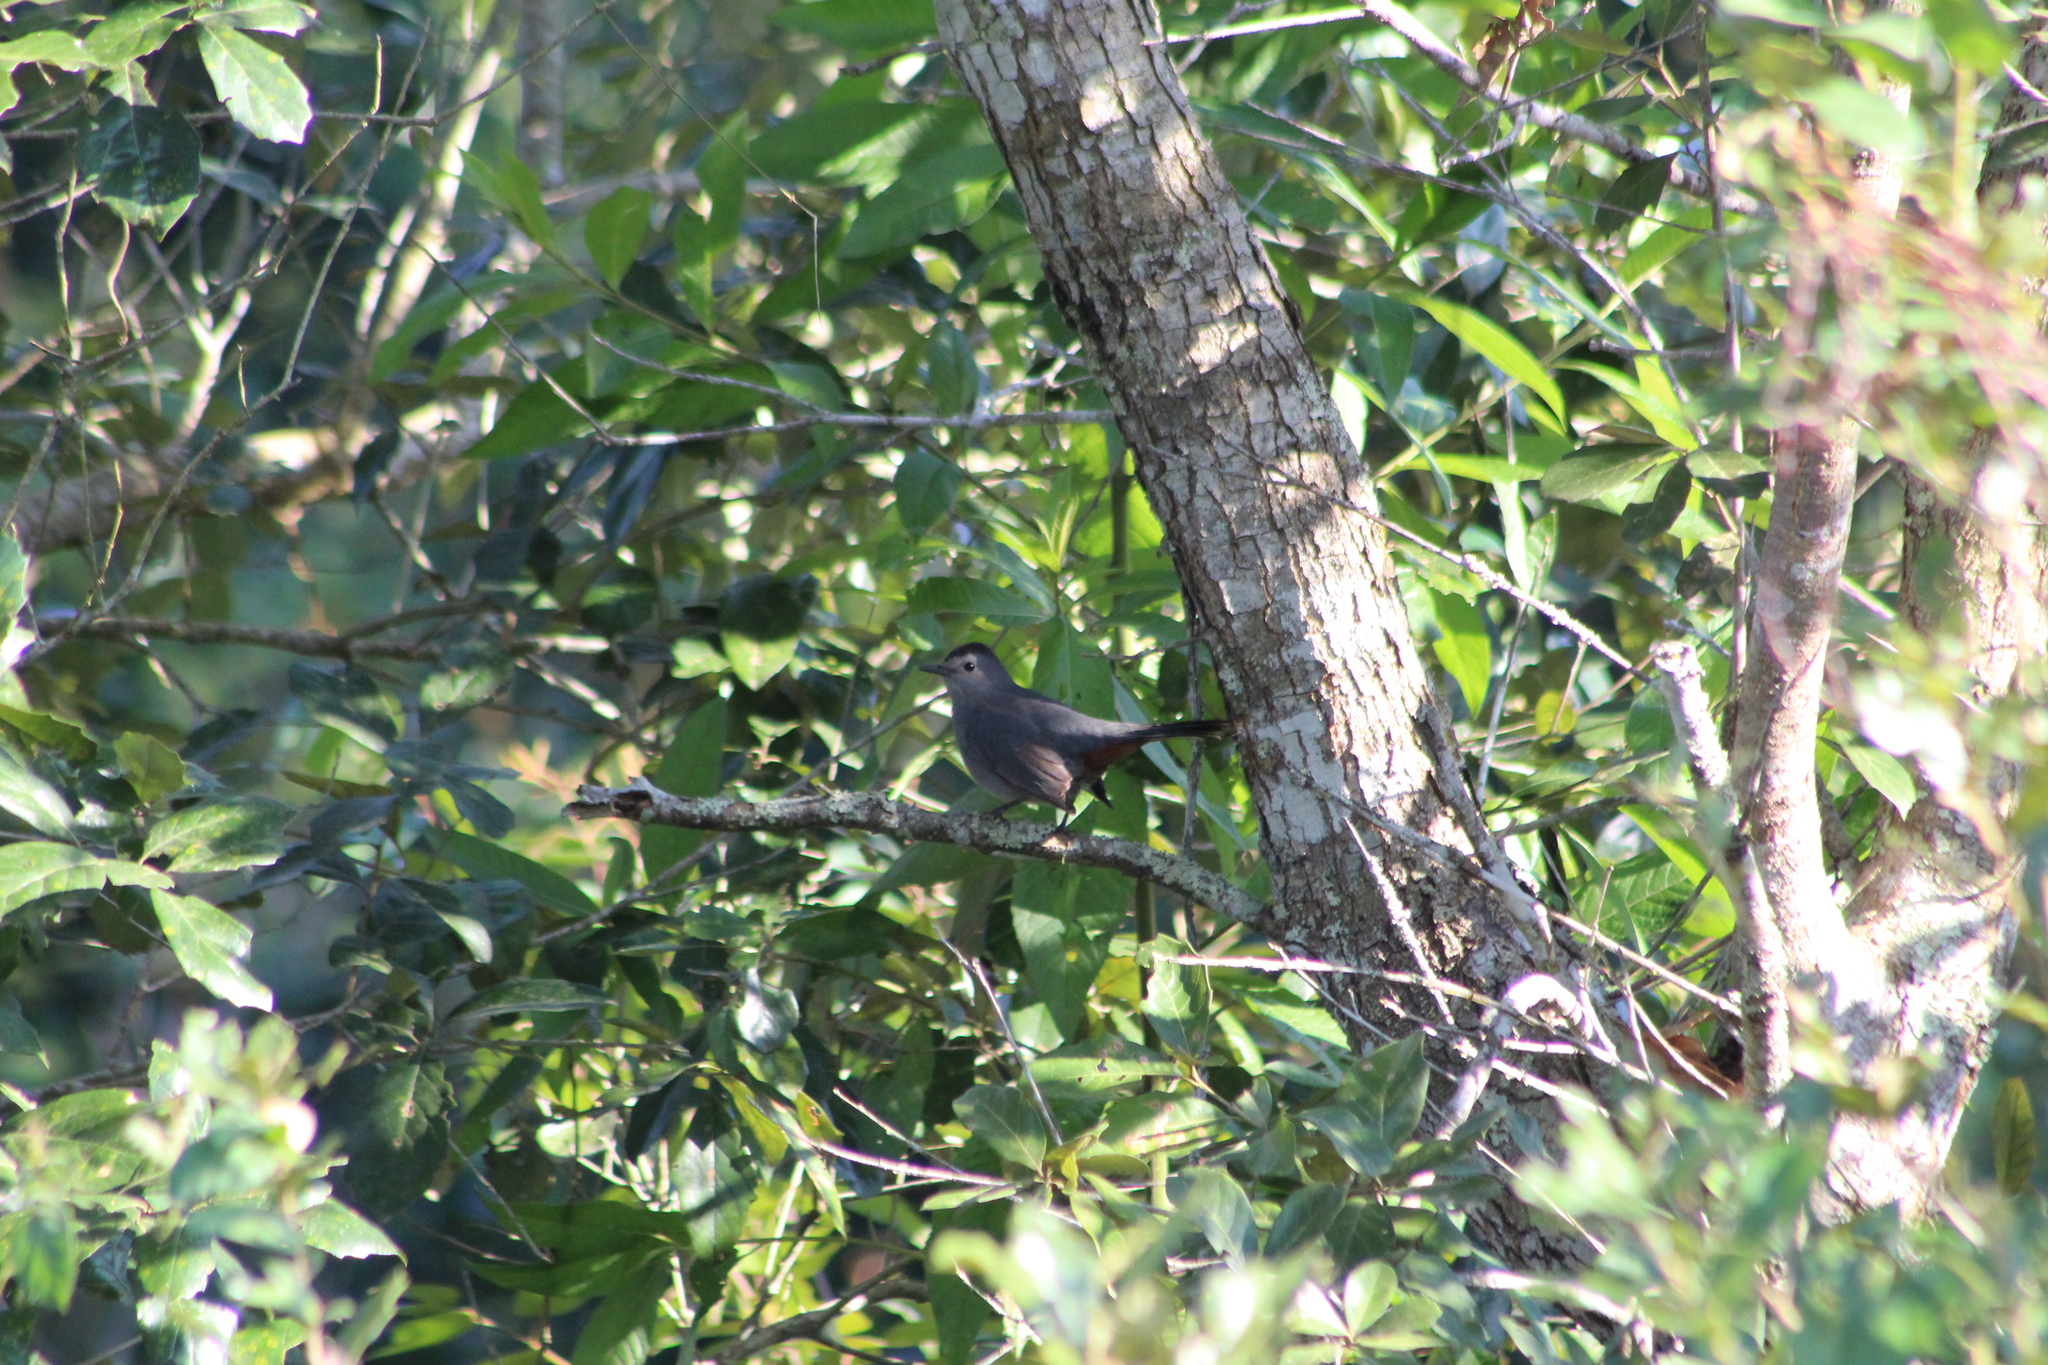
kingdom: Animalia
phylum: Chordata
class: Aves
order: Passeriformes
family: Mimidae
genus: Dumetella
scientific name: Dumetella carolinensis
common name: Gray catbird
